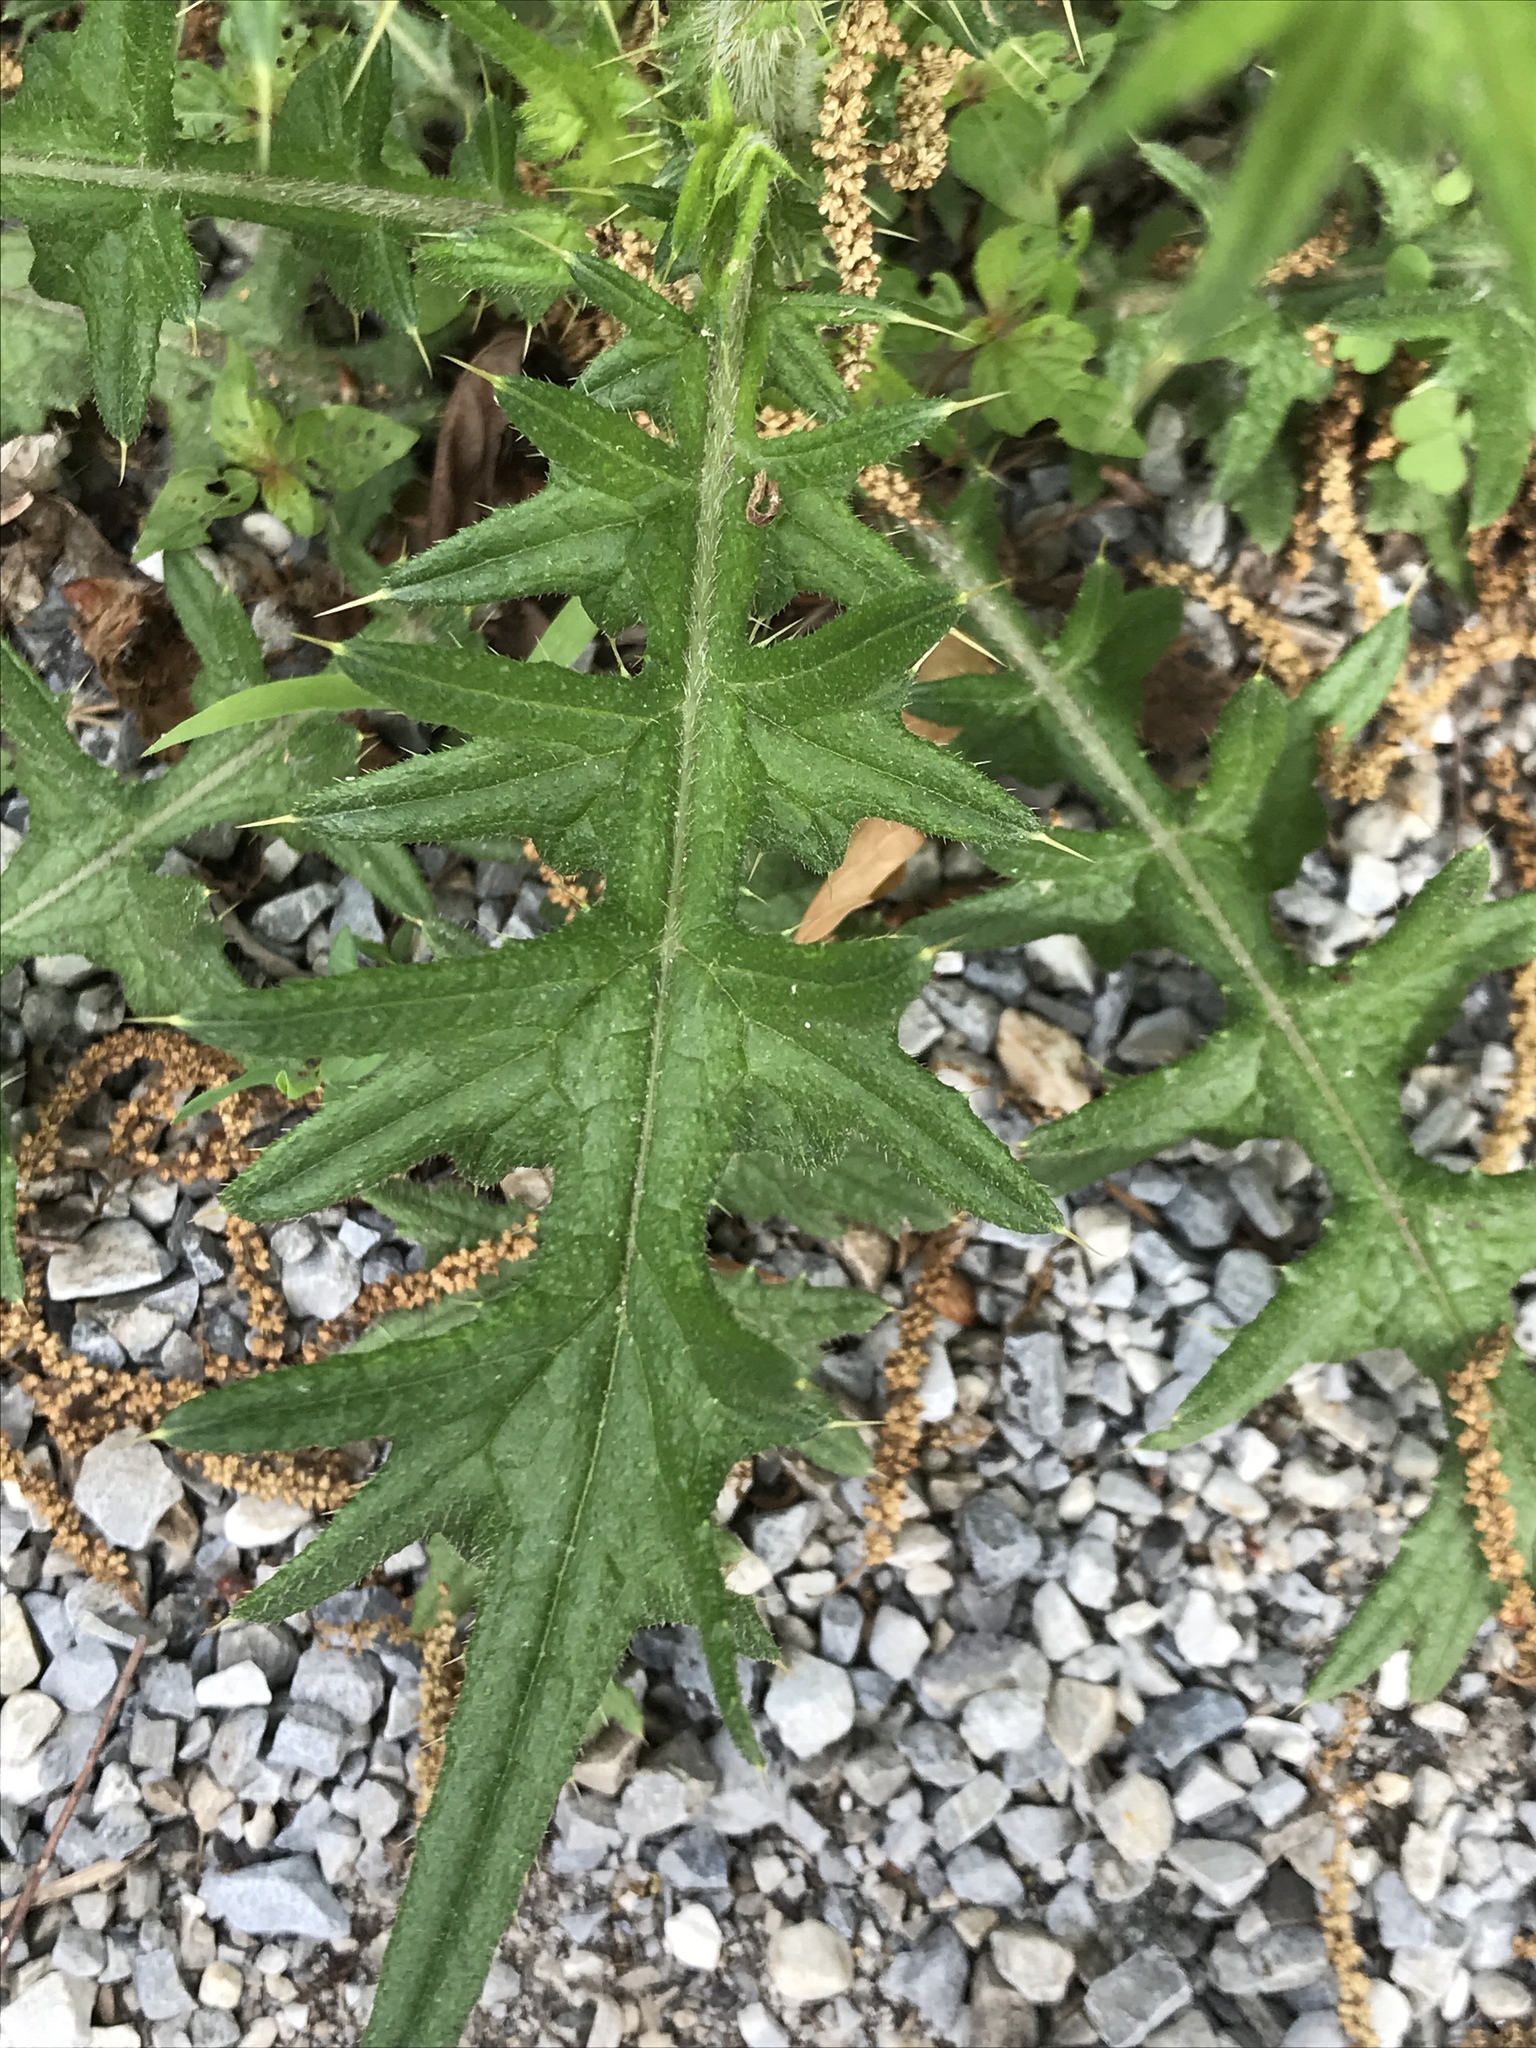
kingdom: Plantae
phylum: Tracheophyta
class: Magnoliopsida
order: Asterales
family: Asteraceae
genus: Cirsium
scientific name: Cirsium vulgare
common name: Bull thistle
